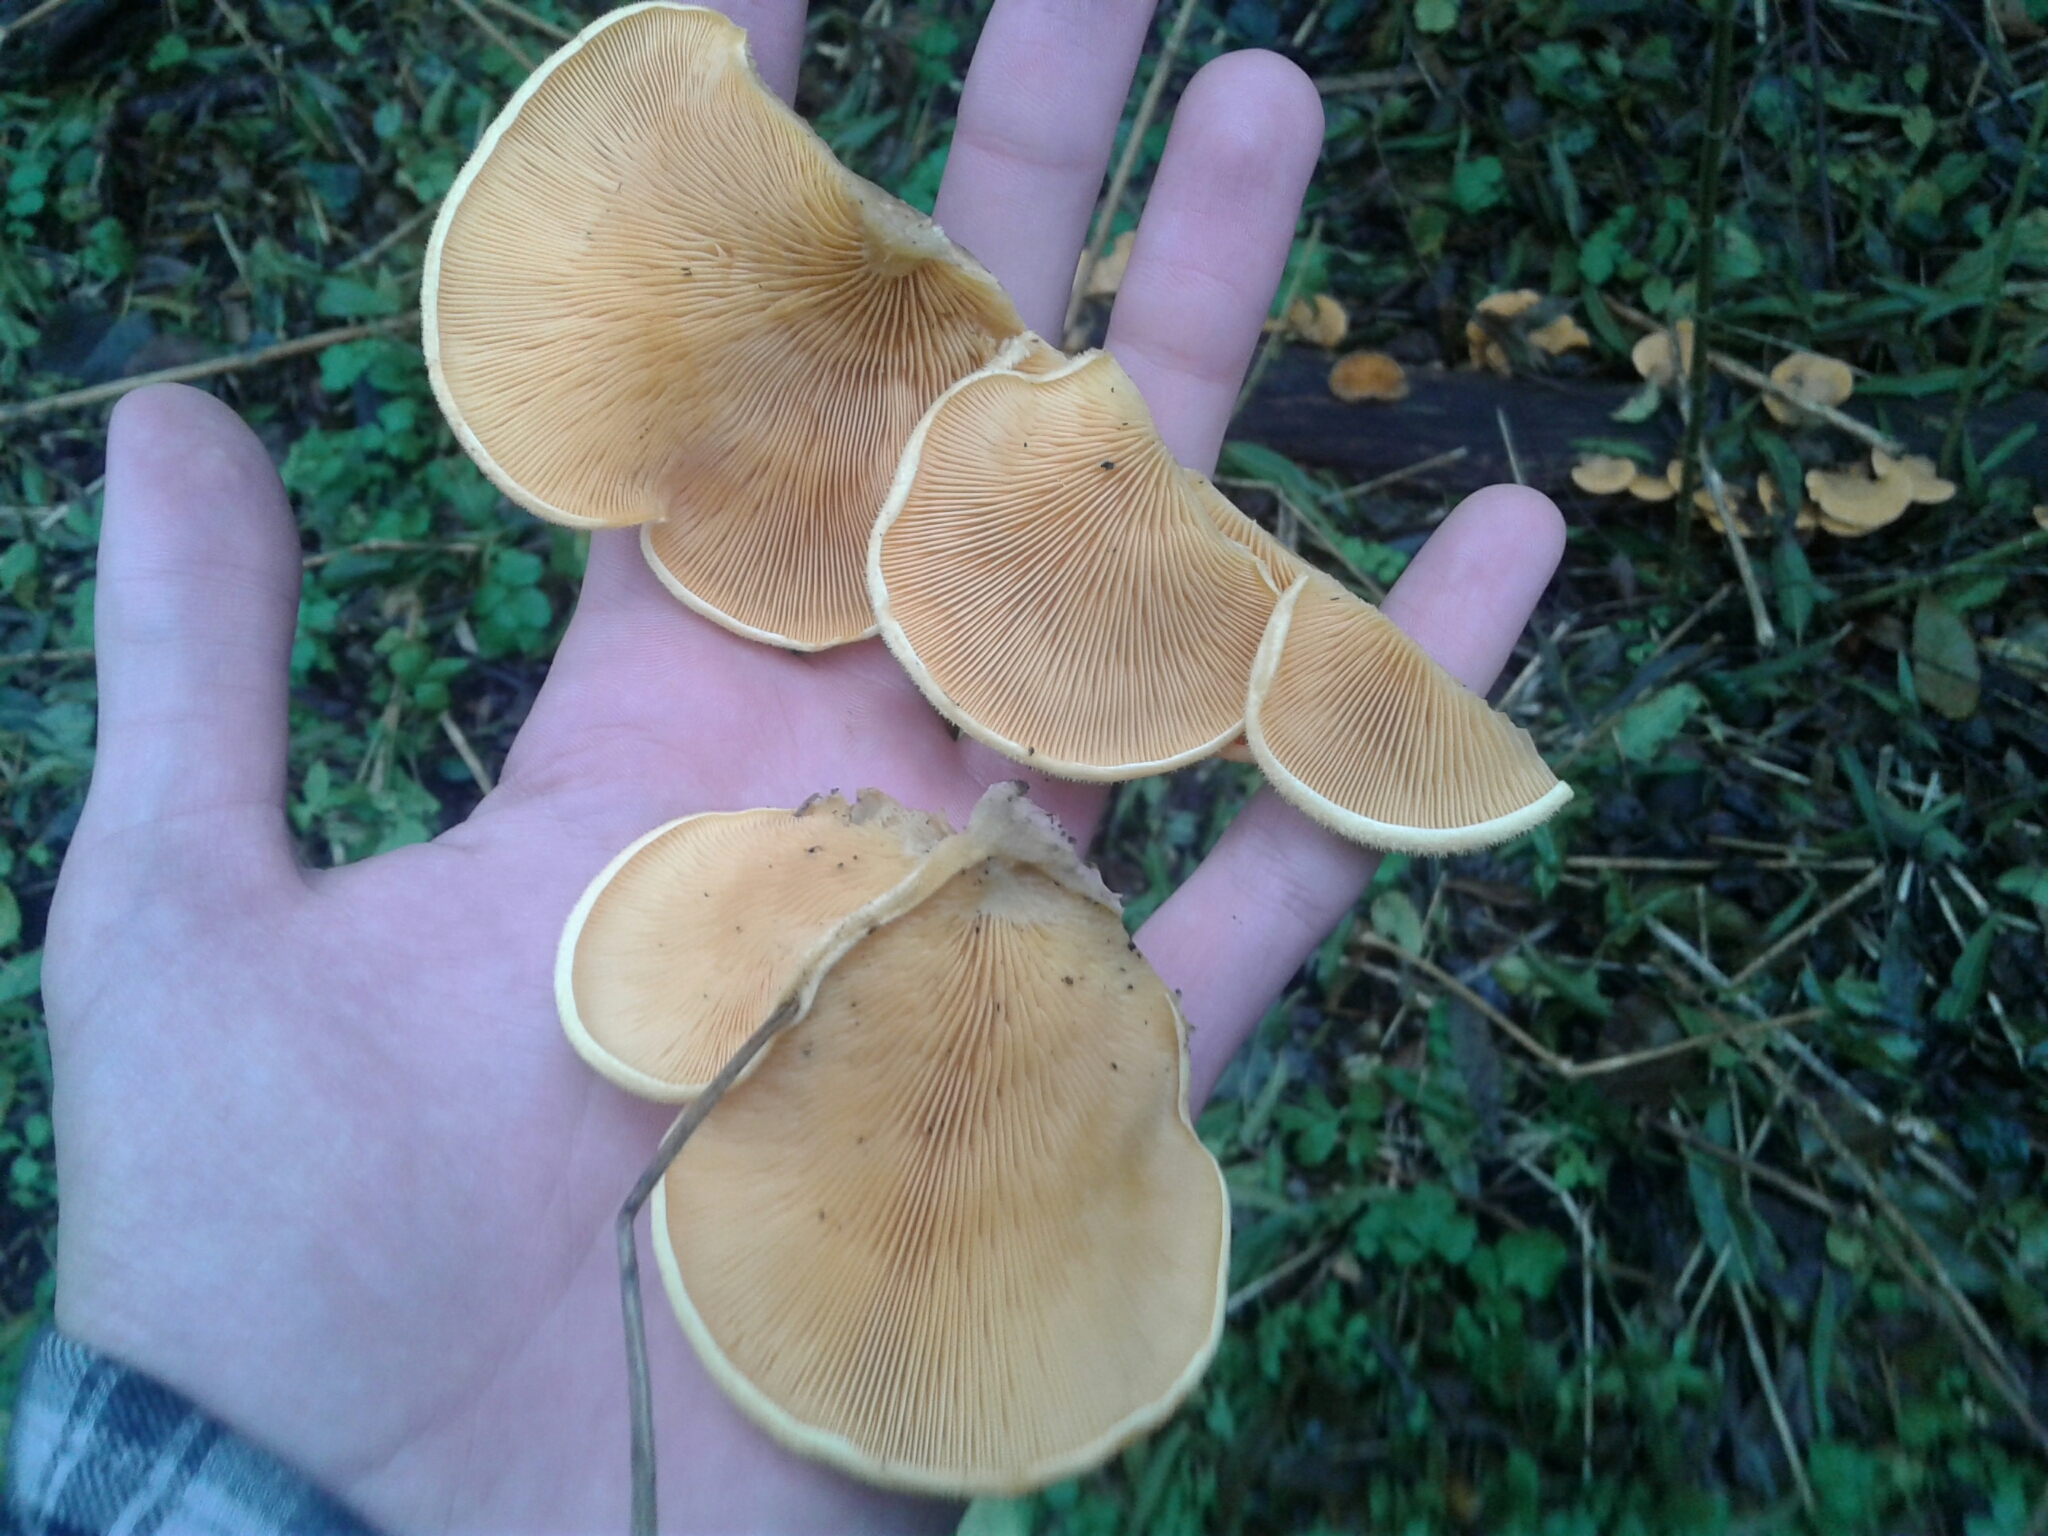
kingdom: Fungi
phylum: Basidiomycota
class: Agaricomycetes
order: Agaricales
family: Phyllotopsidaceae
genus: Phyllotopsis
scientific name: Phyllotopsis nidulans
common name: Orange mock oyster
